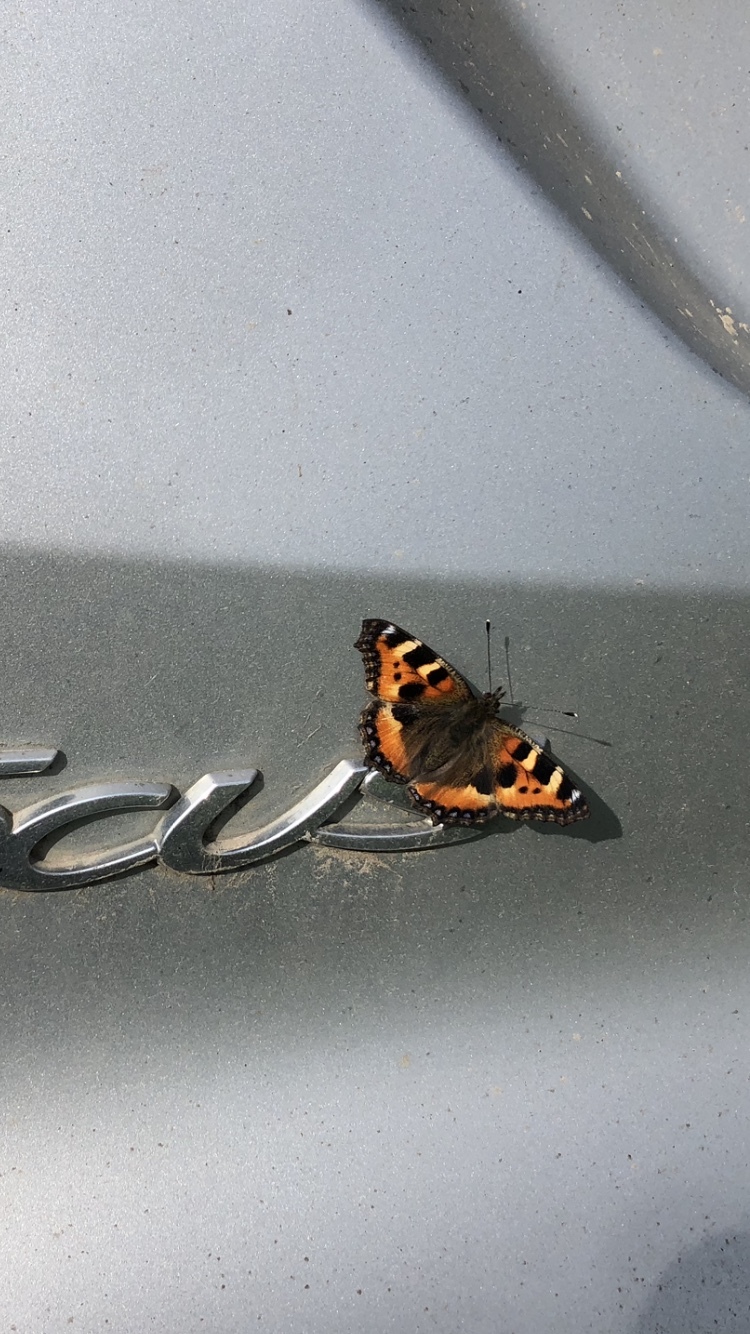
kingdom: Animalia
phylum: Arthropoda
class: Insecta
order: Lepidoptera
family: Nymphalidae
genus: Aglais
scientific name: Aglais urticae
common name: Small tortoiseshell
